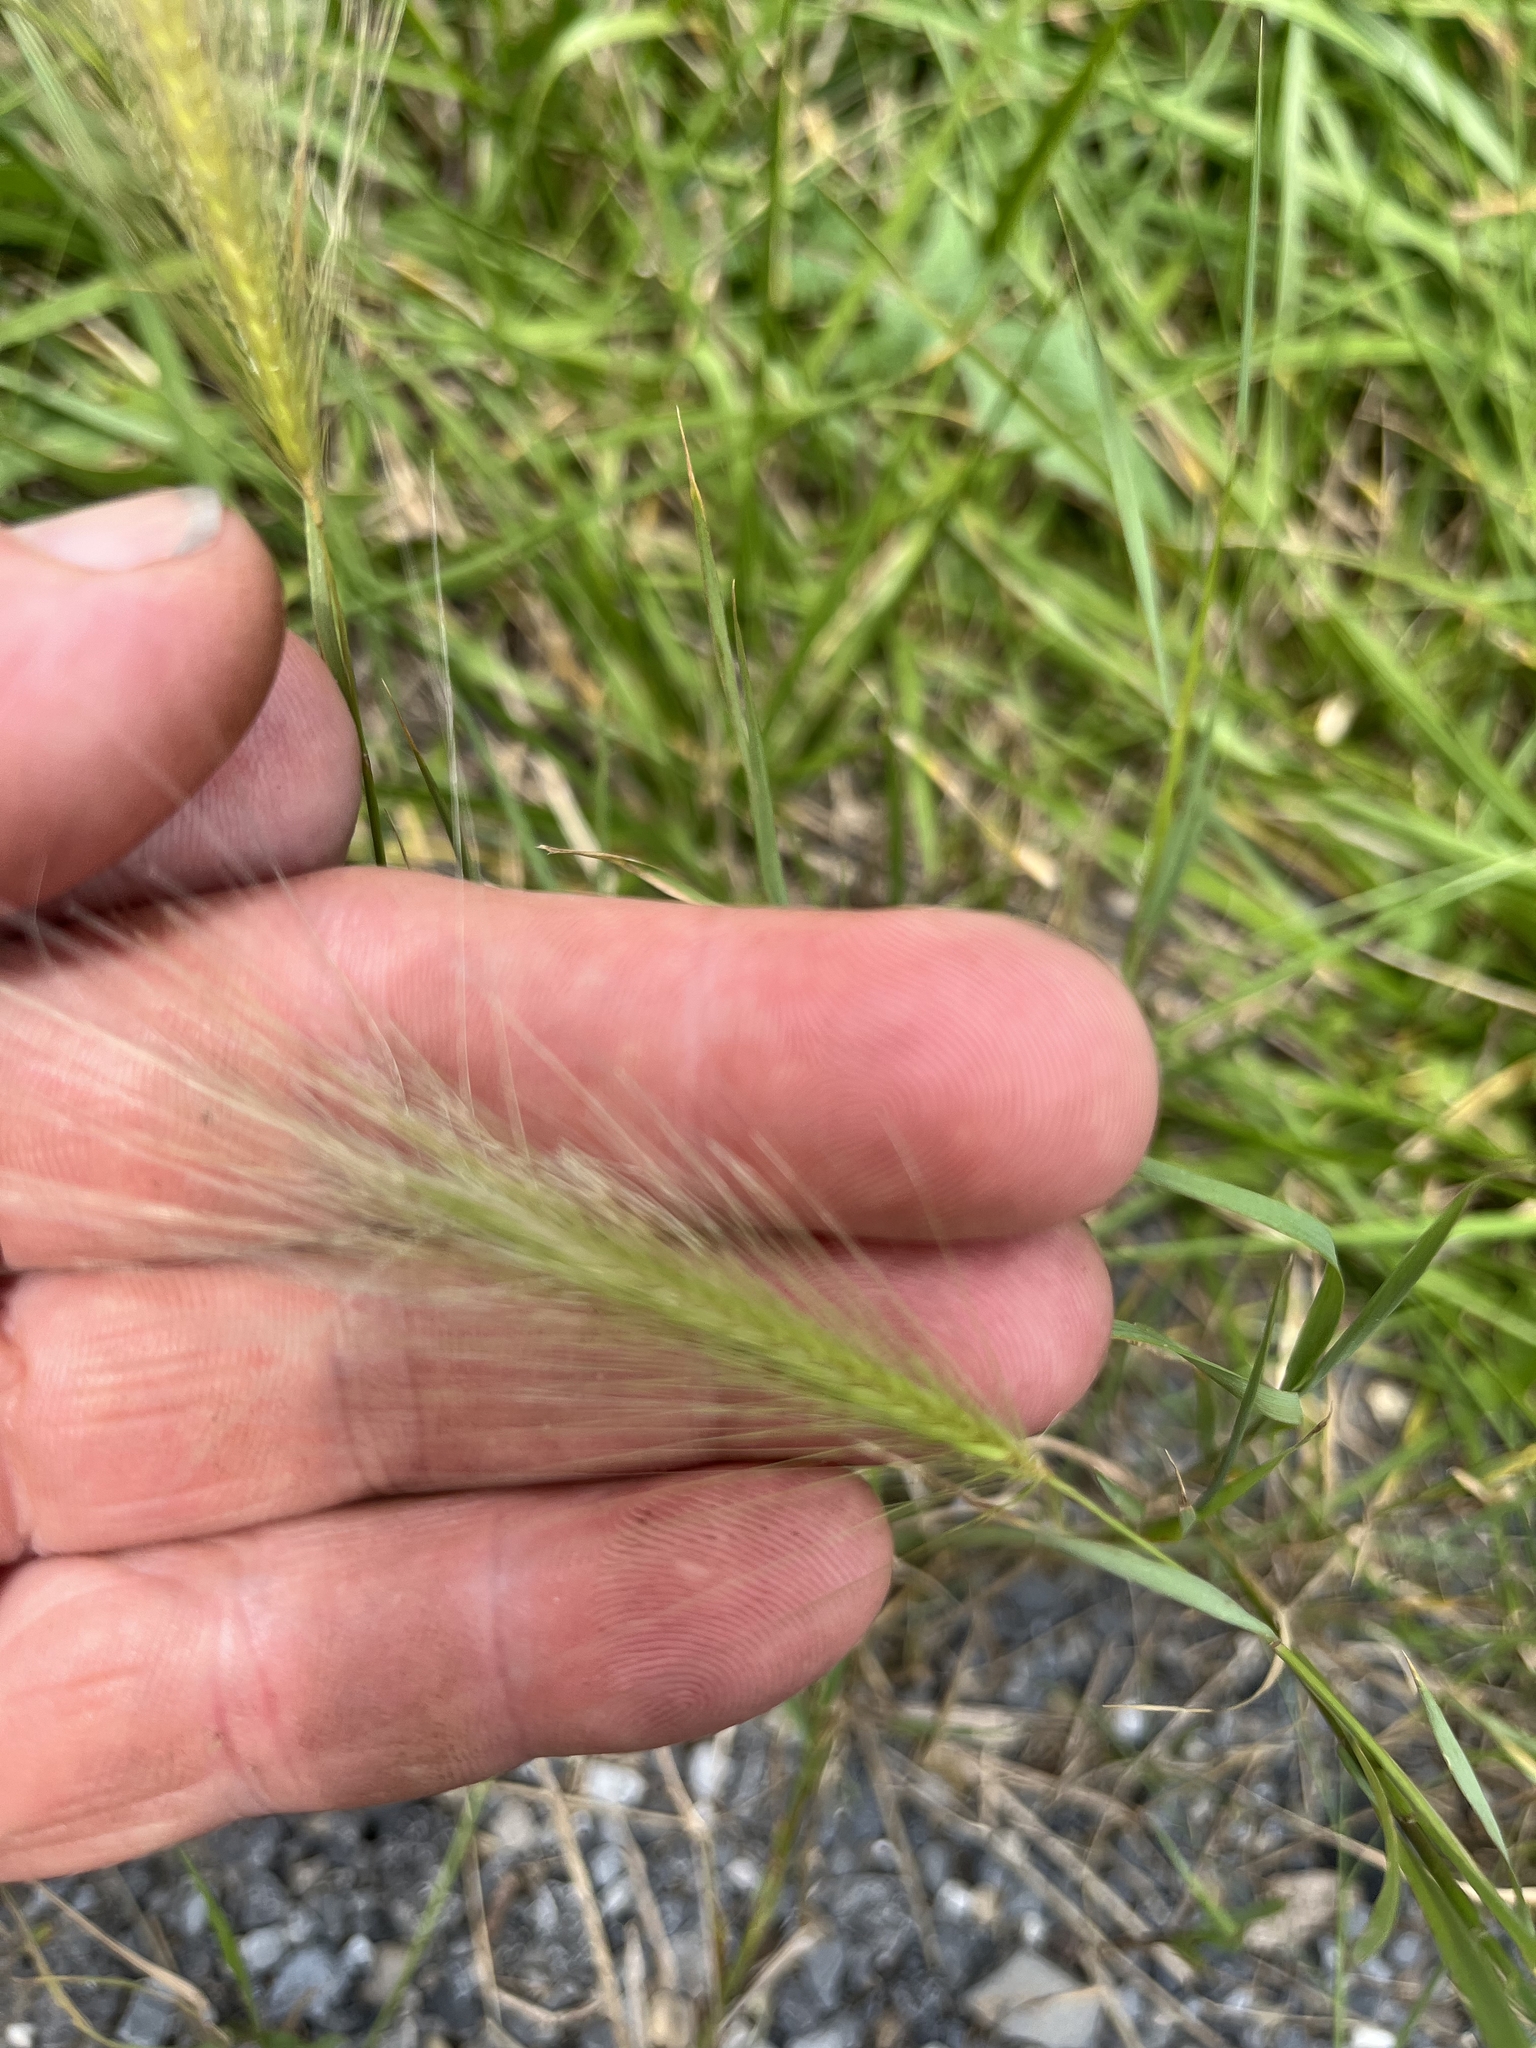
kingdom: Plantae
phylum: Tracheophyta
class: Liliopsida
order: Poales
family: Poaceae
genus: Hordeum
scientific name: Hordeum jubatum
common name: Foxtail barley
